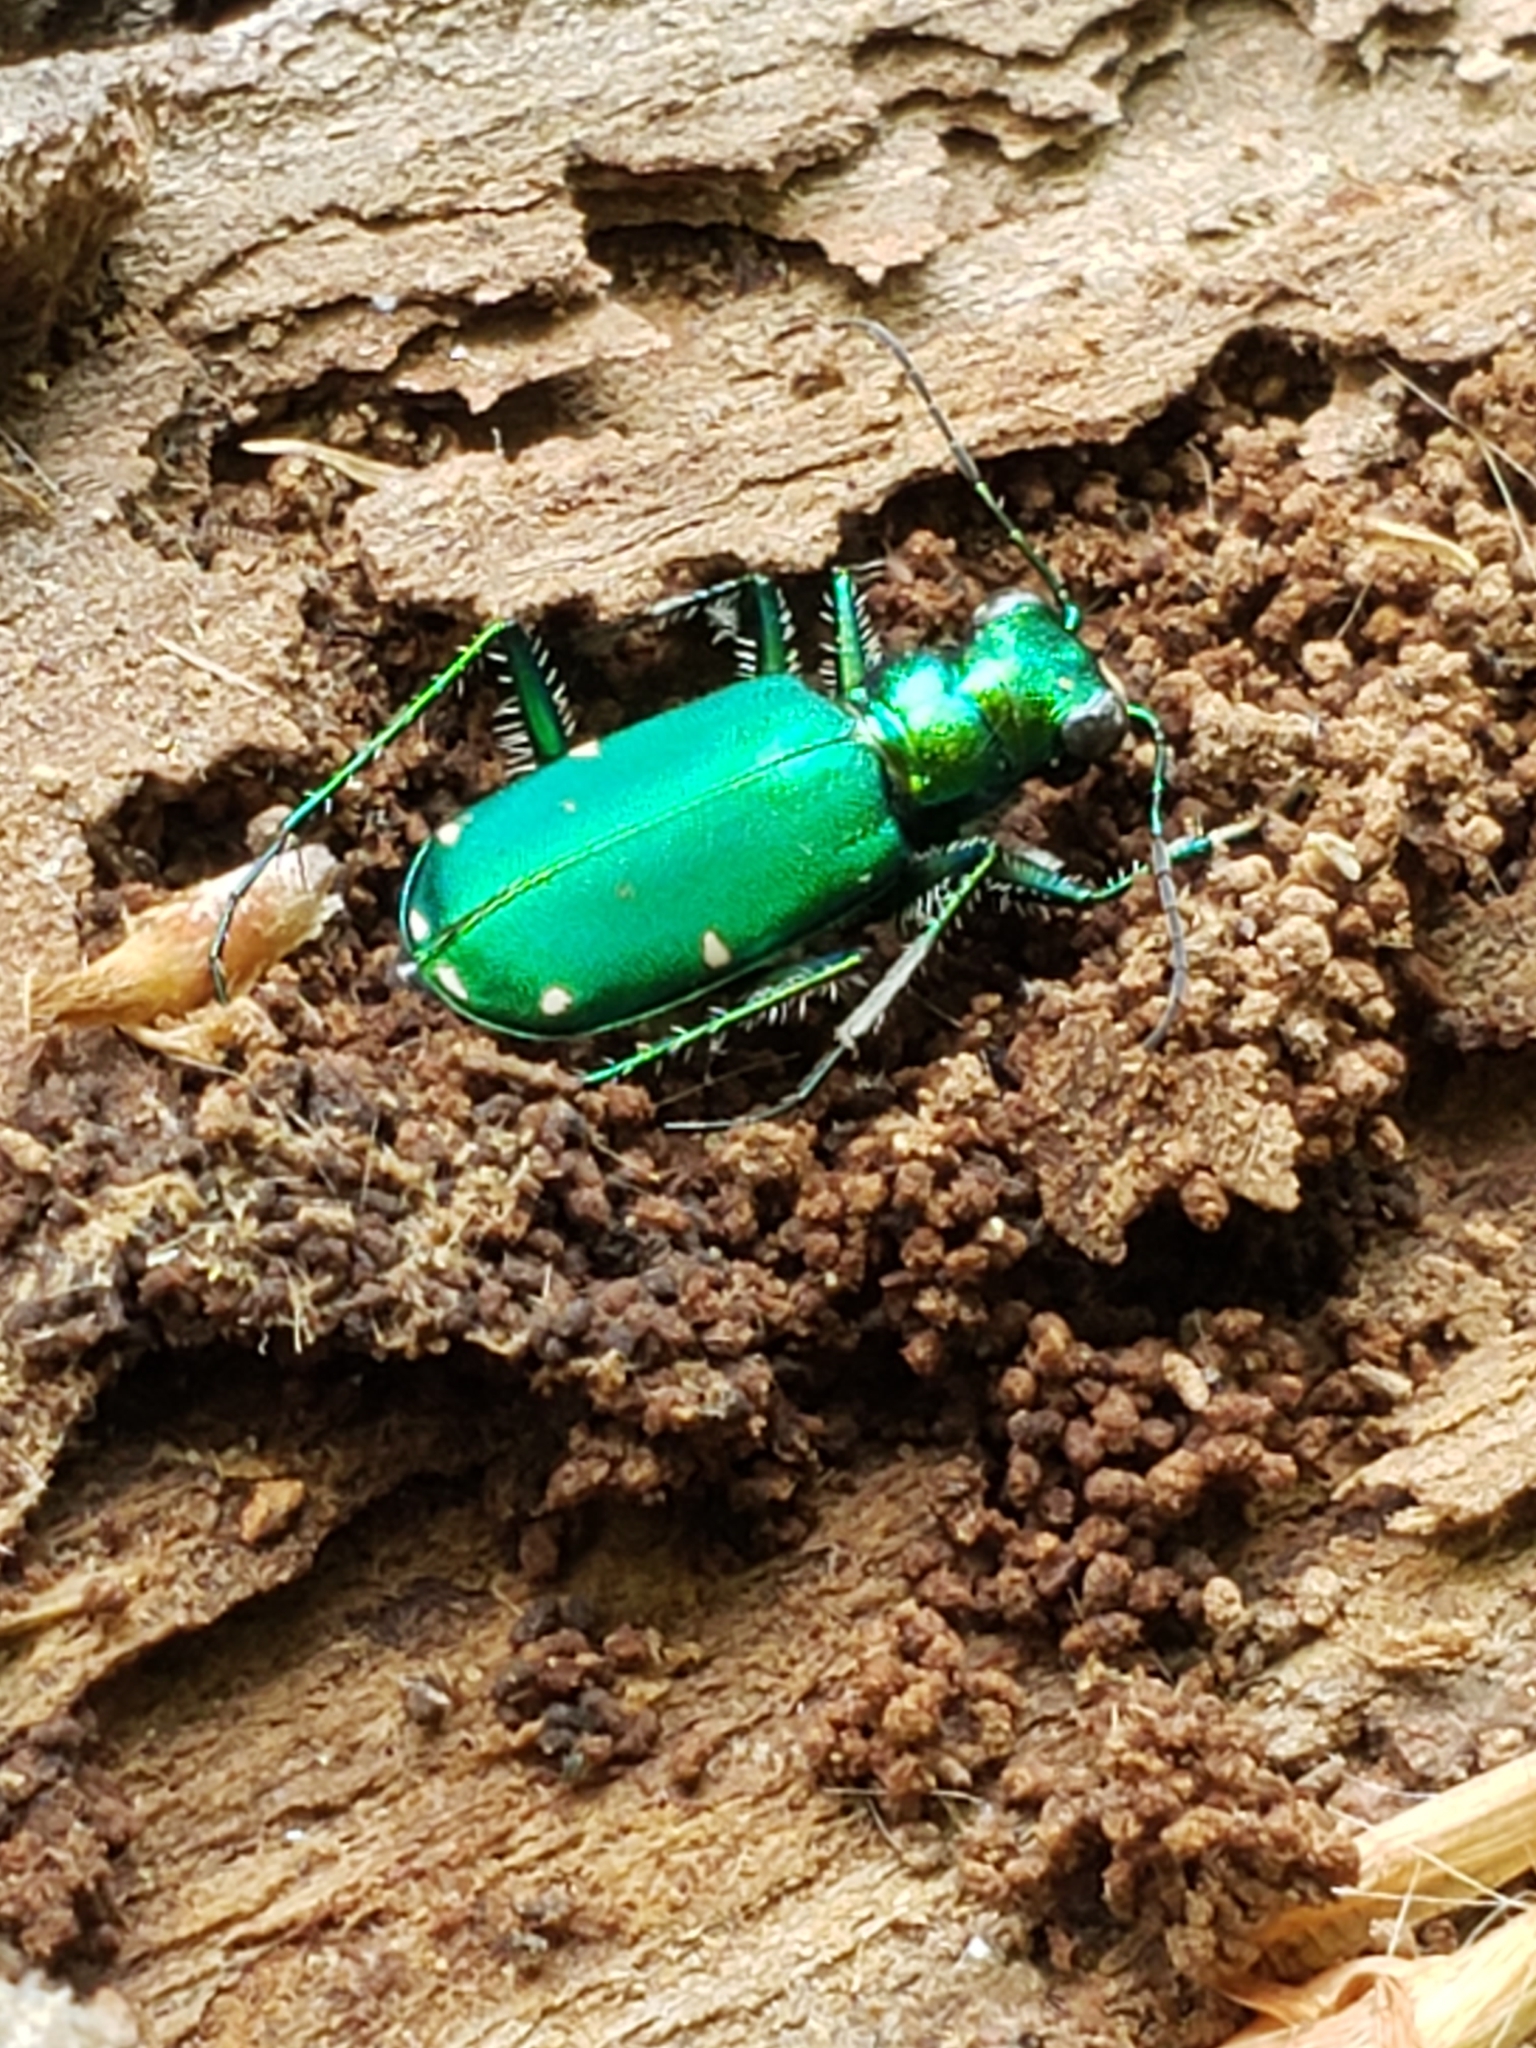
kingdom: Animalia
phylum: Arthropoda
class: Insecta
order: Coleoptera
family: Carabidae
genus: Cicindela
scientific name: Cicindela sexguttata
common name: Six-spotted tiger beetle
